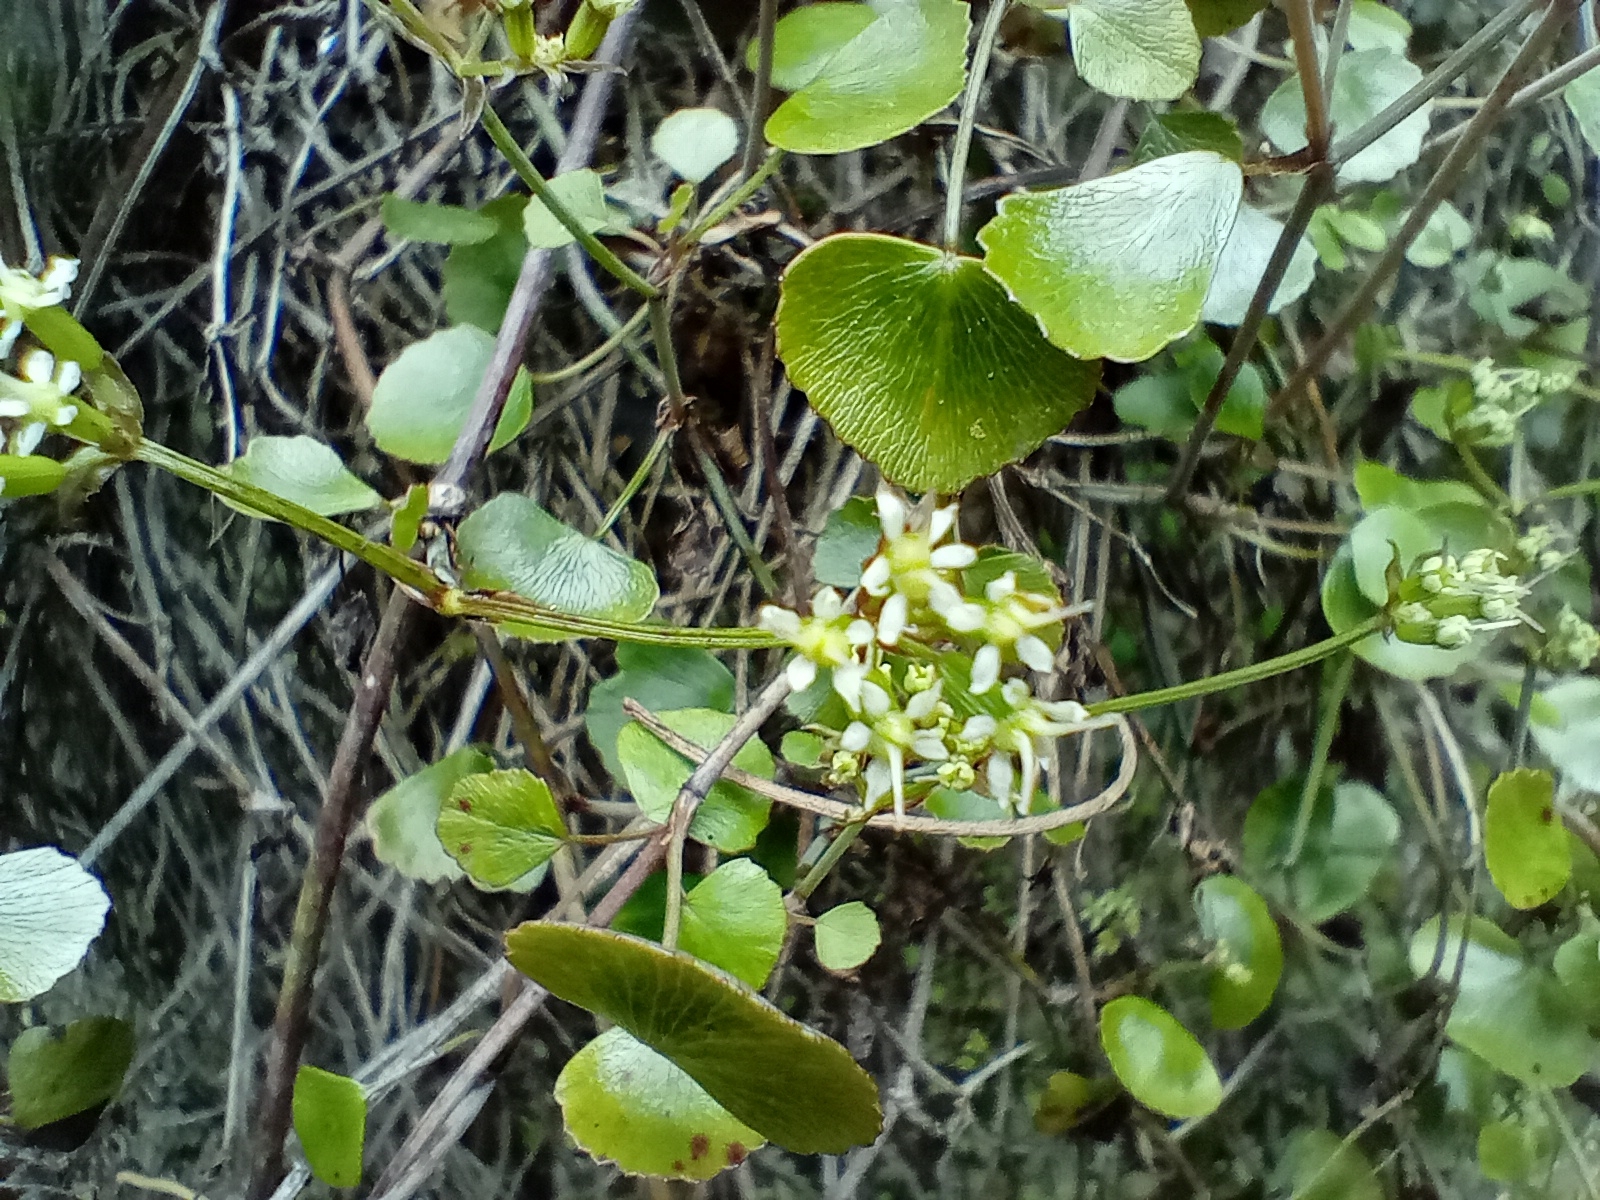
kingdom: Plantae
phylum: Tracheophyta
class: Magnoliopsida
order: Apiales
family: Apiaceae
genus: Scandia
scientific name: Scandia geniculata
